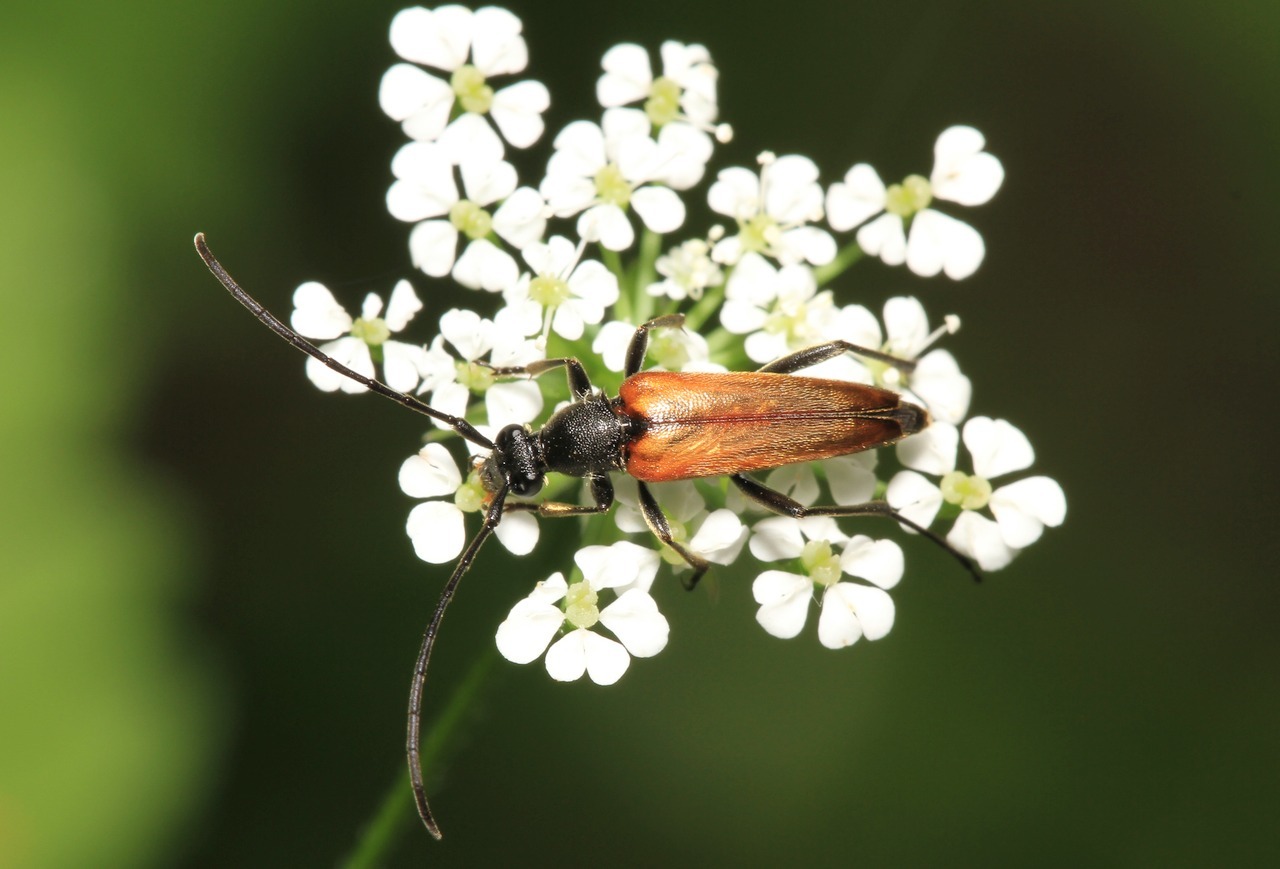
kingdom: Animalia
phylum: Arthropoda
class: Insecta
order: Coleoptera
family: Cerambycidae
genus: Stenurella
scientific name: Stenurella melanura
